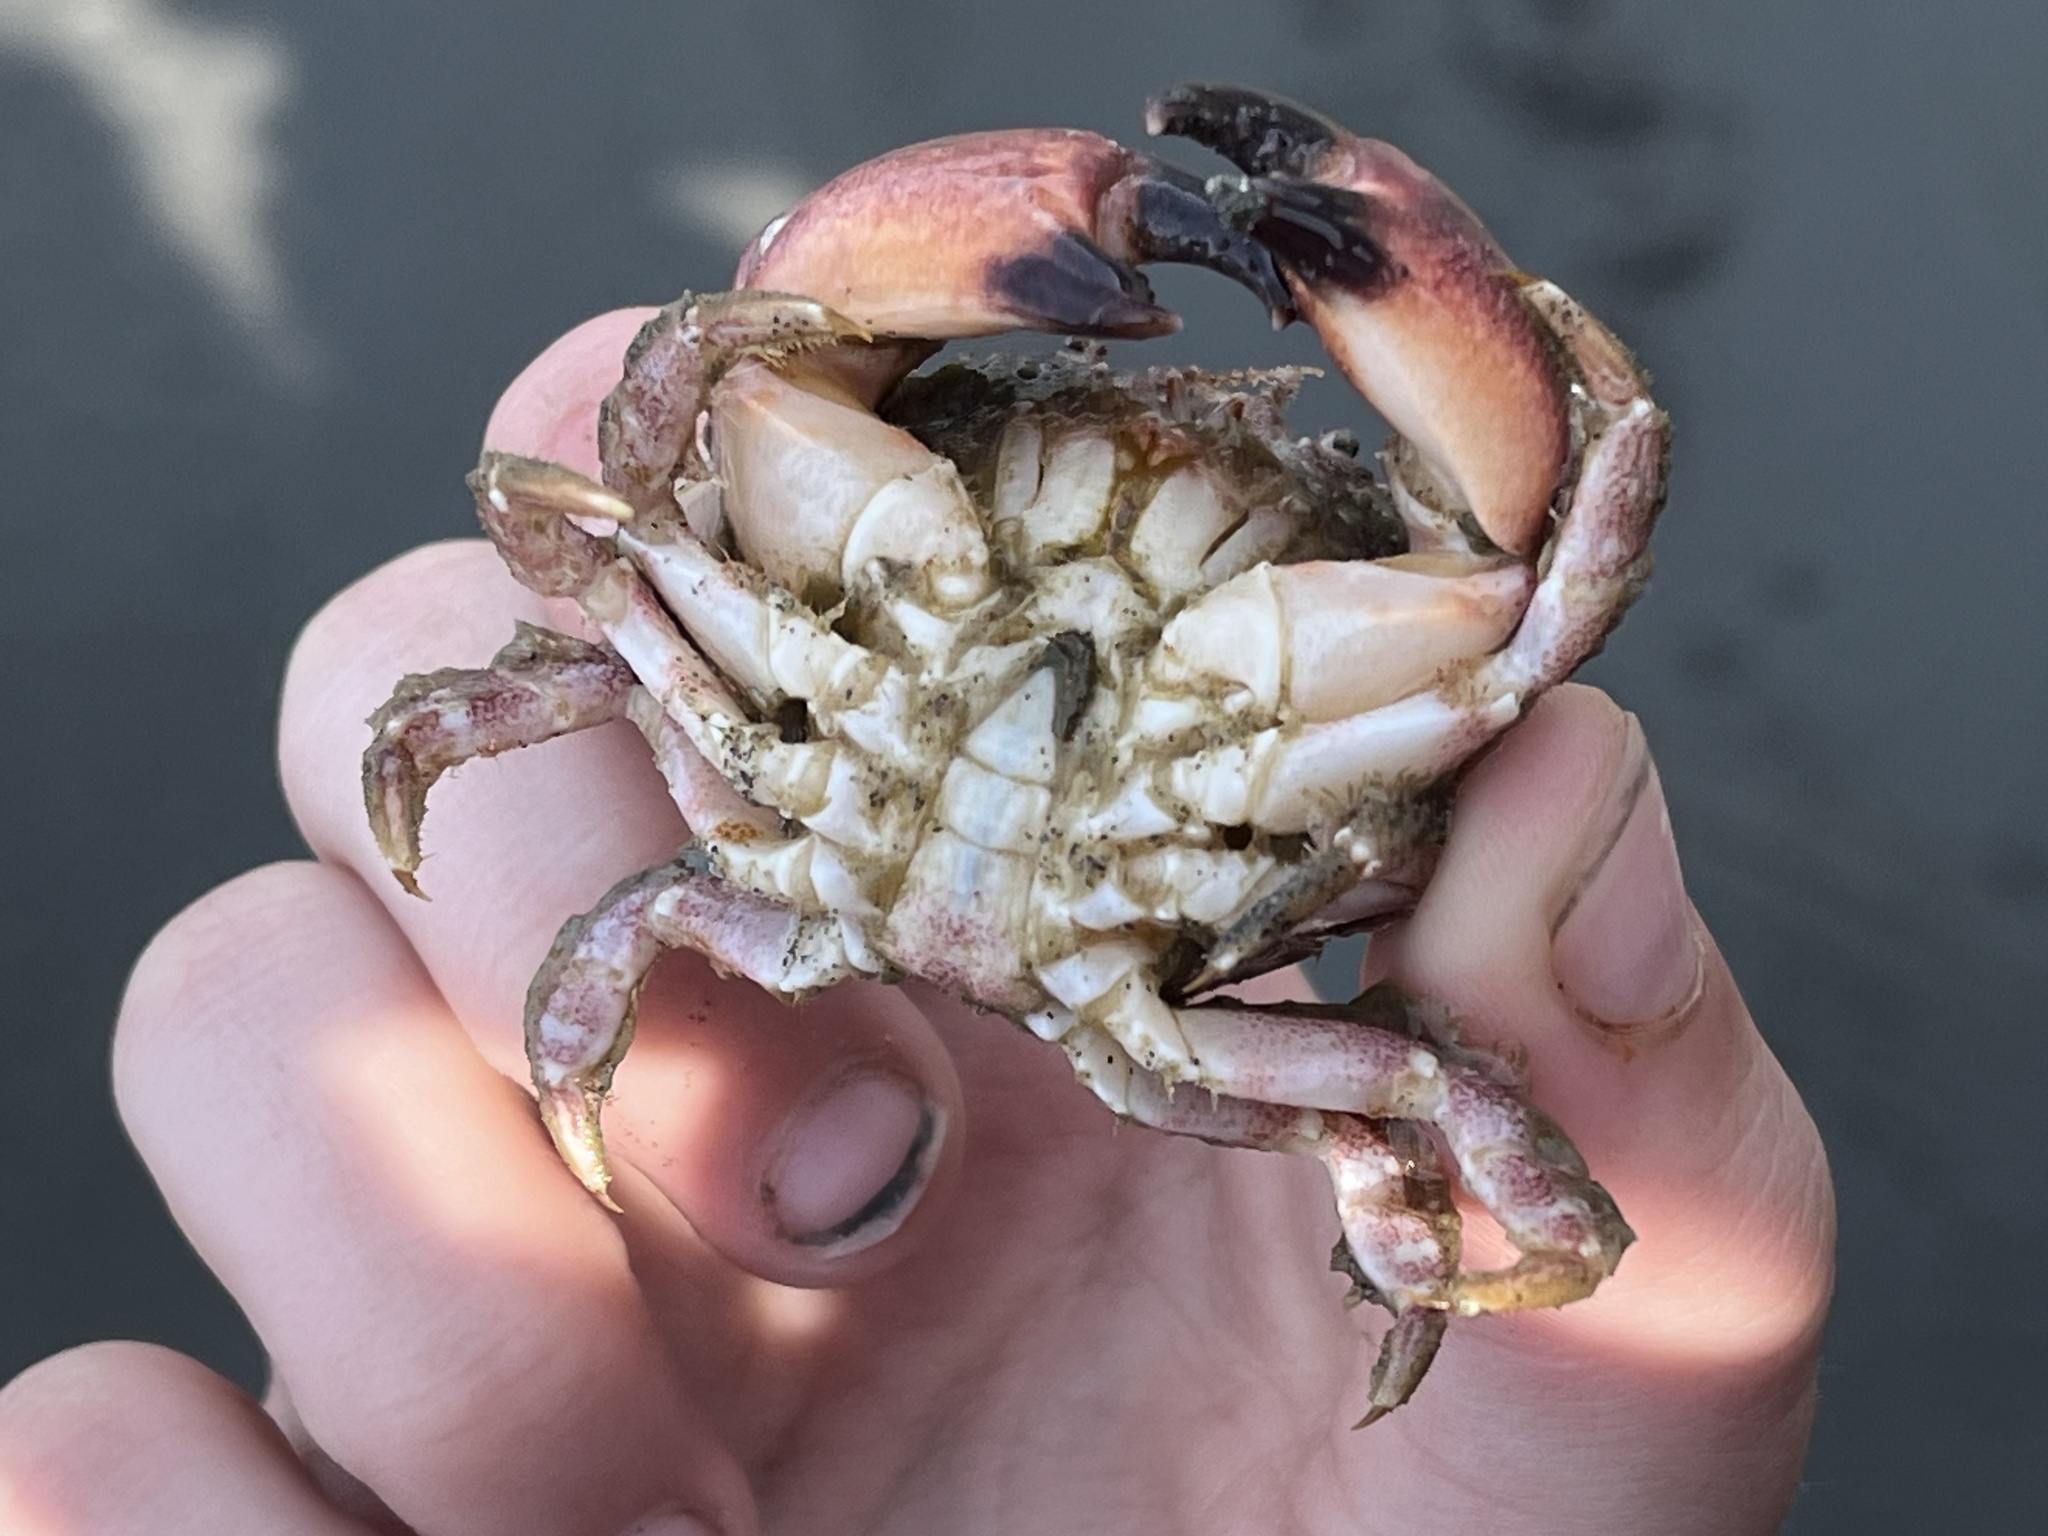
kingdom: Animalia
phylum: Arthropoda
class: Malacostraca
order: Decapoda
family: Cancridae
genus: Glebocarcinus
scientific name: Glebocarcinus oregonensis
